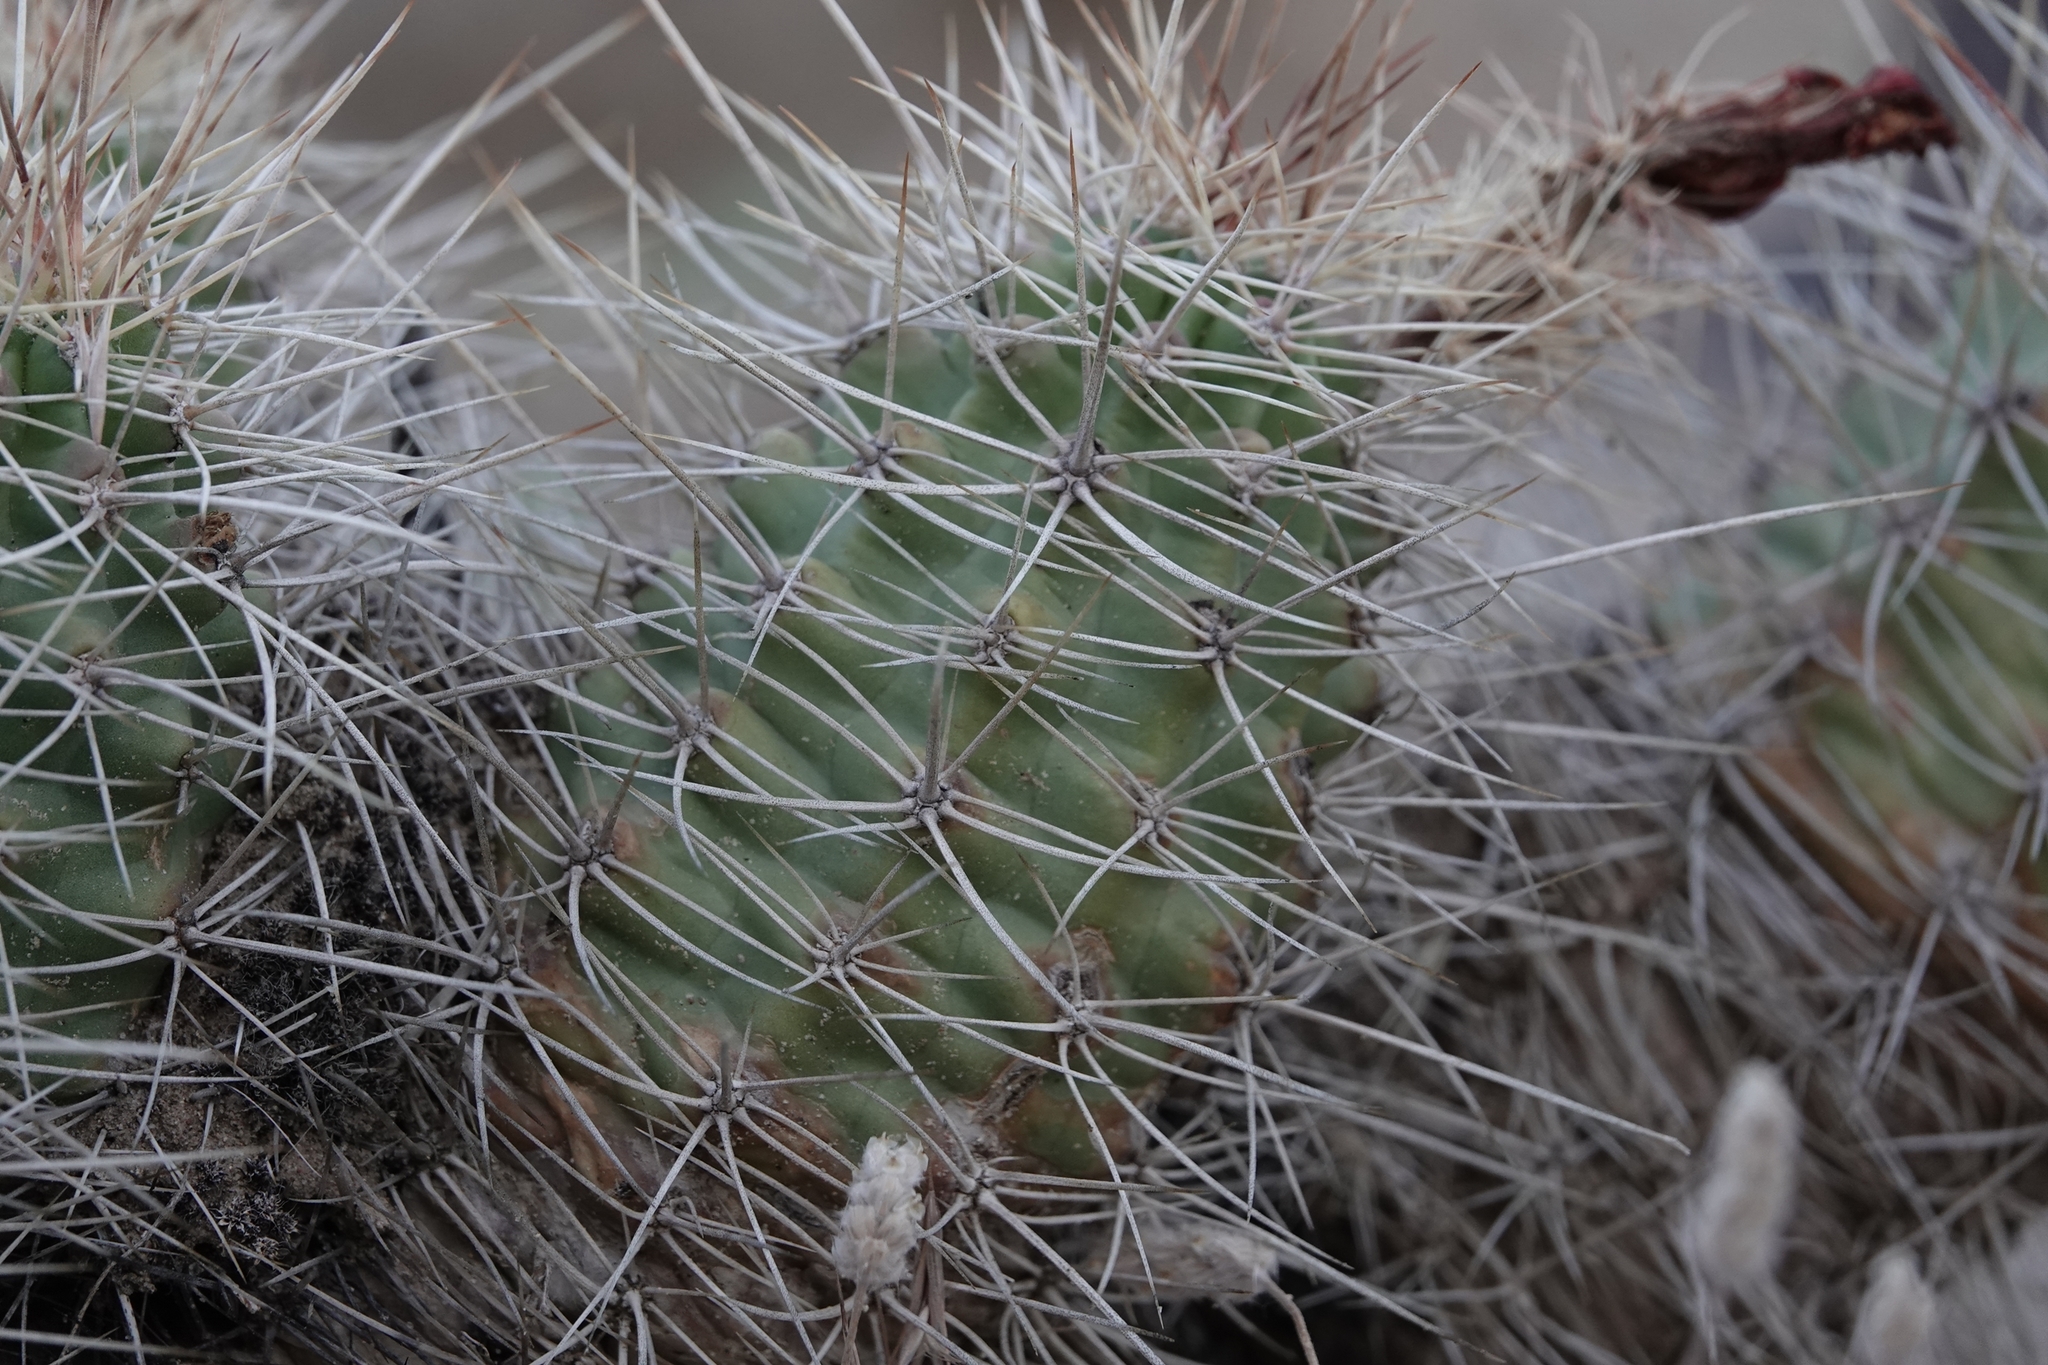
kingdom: Plantae
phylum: Tracheophyta
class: Magnoliopsida
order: Caryophyllales
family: Cactaceae
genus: Echinocereus
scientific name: Echinocereus triglochidiatus
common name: Claretcup hedgehog
